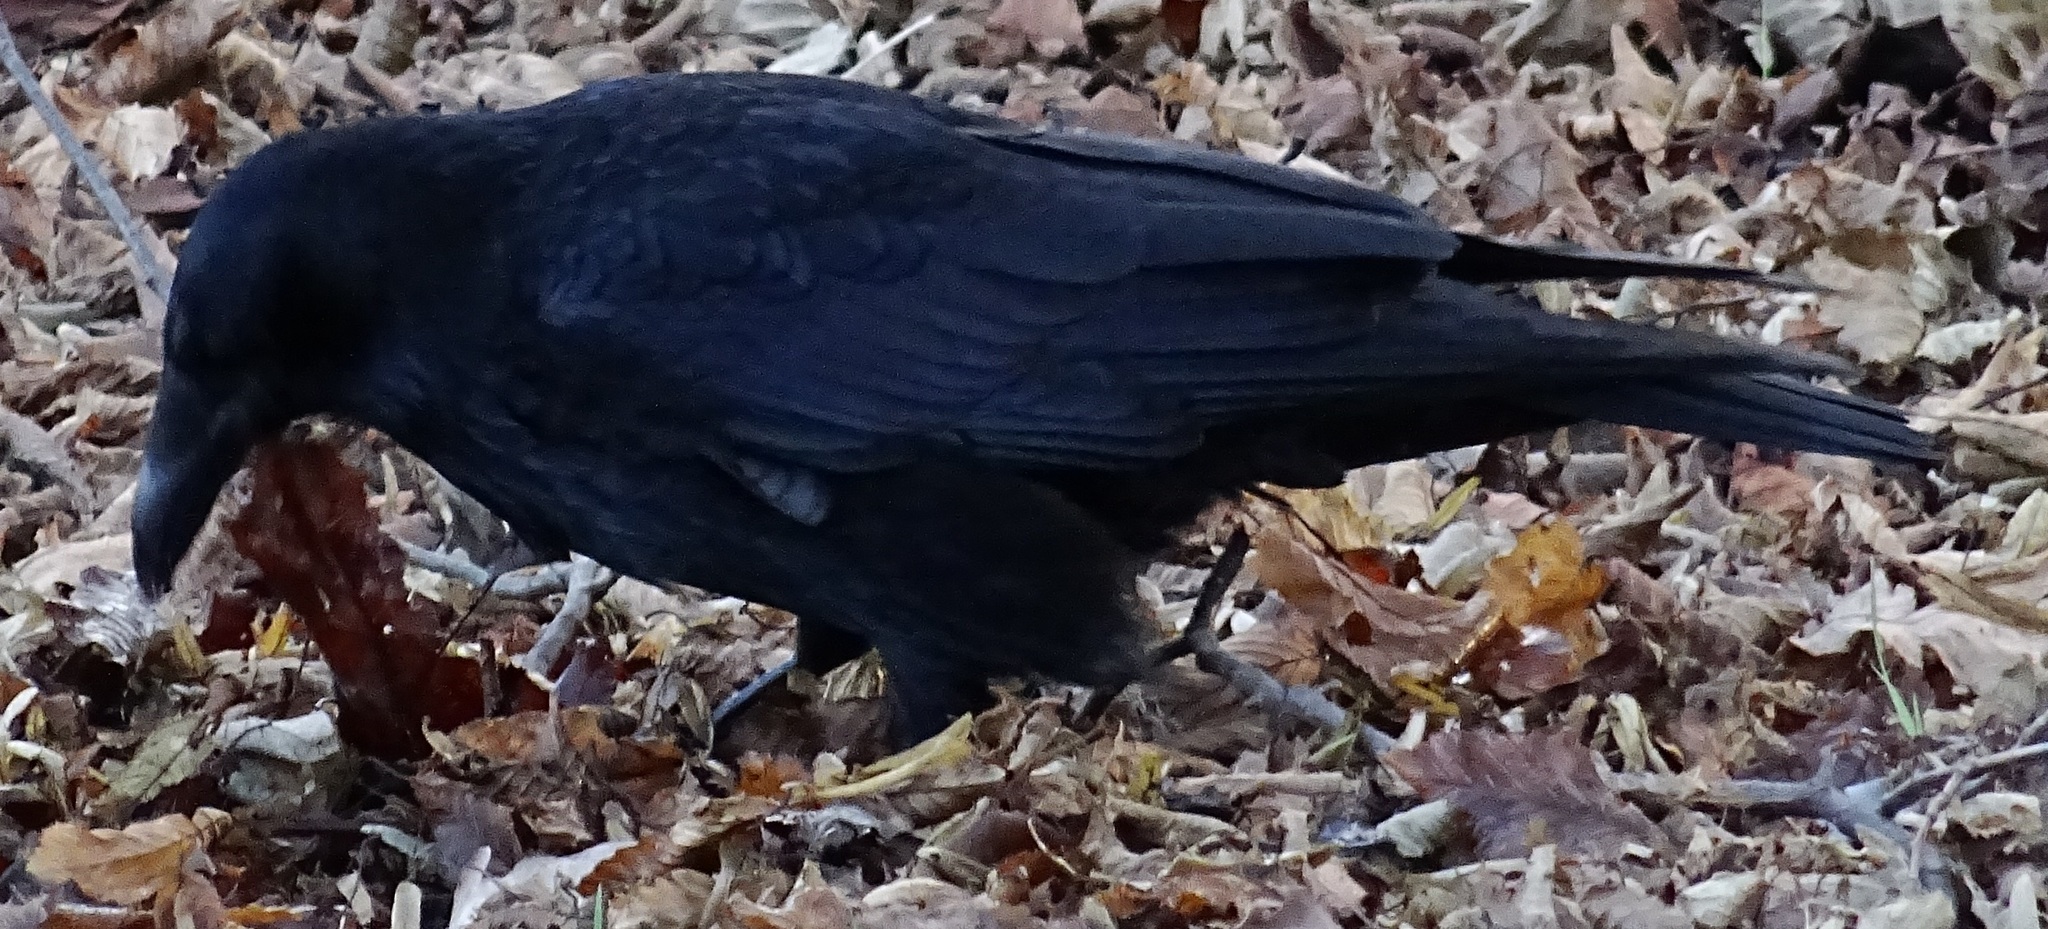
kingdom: Animalia
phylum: Chordata
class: Aves
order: Passeriformes
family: Corvidae
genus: Corvus
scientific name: Corvus corone
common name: Carrion crow
